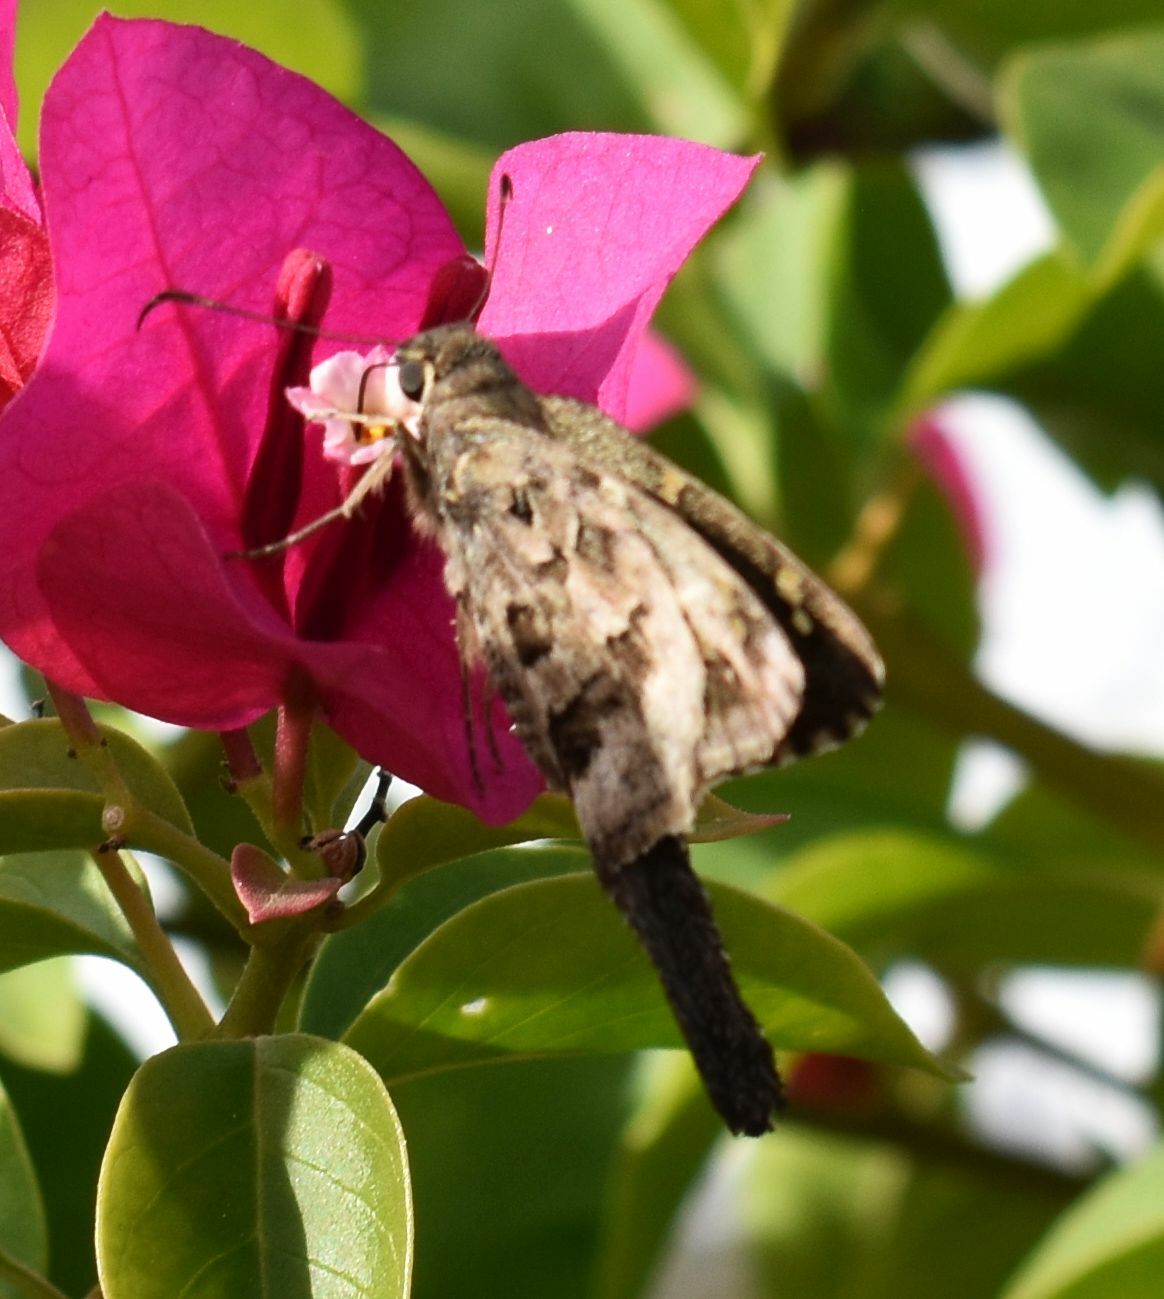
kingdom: Animalia
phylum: Arthropoda
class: Insecta
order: Lepidoptera
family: Hesperiidae
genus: Thorybes
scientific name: Thorybes
